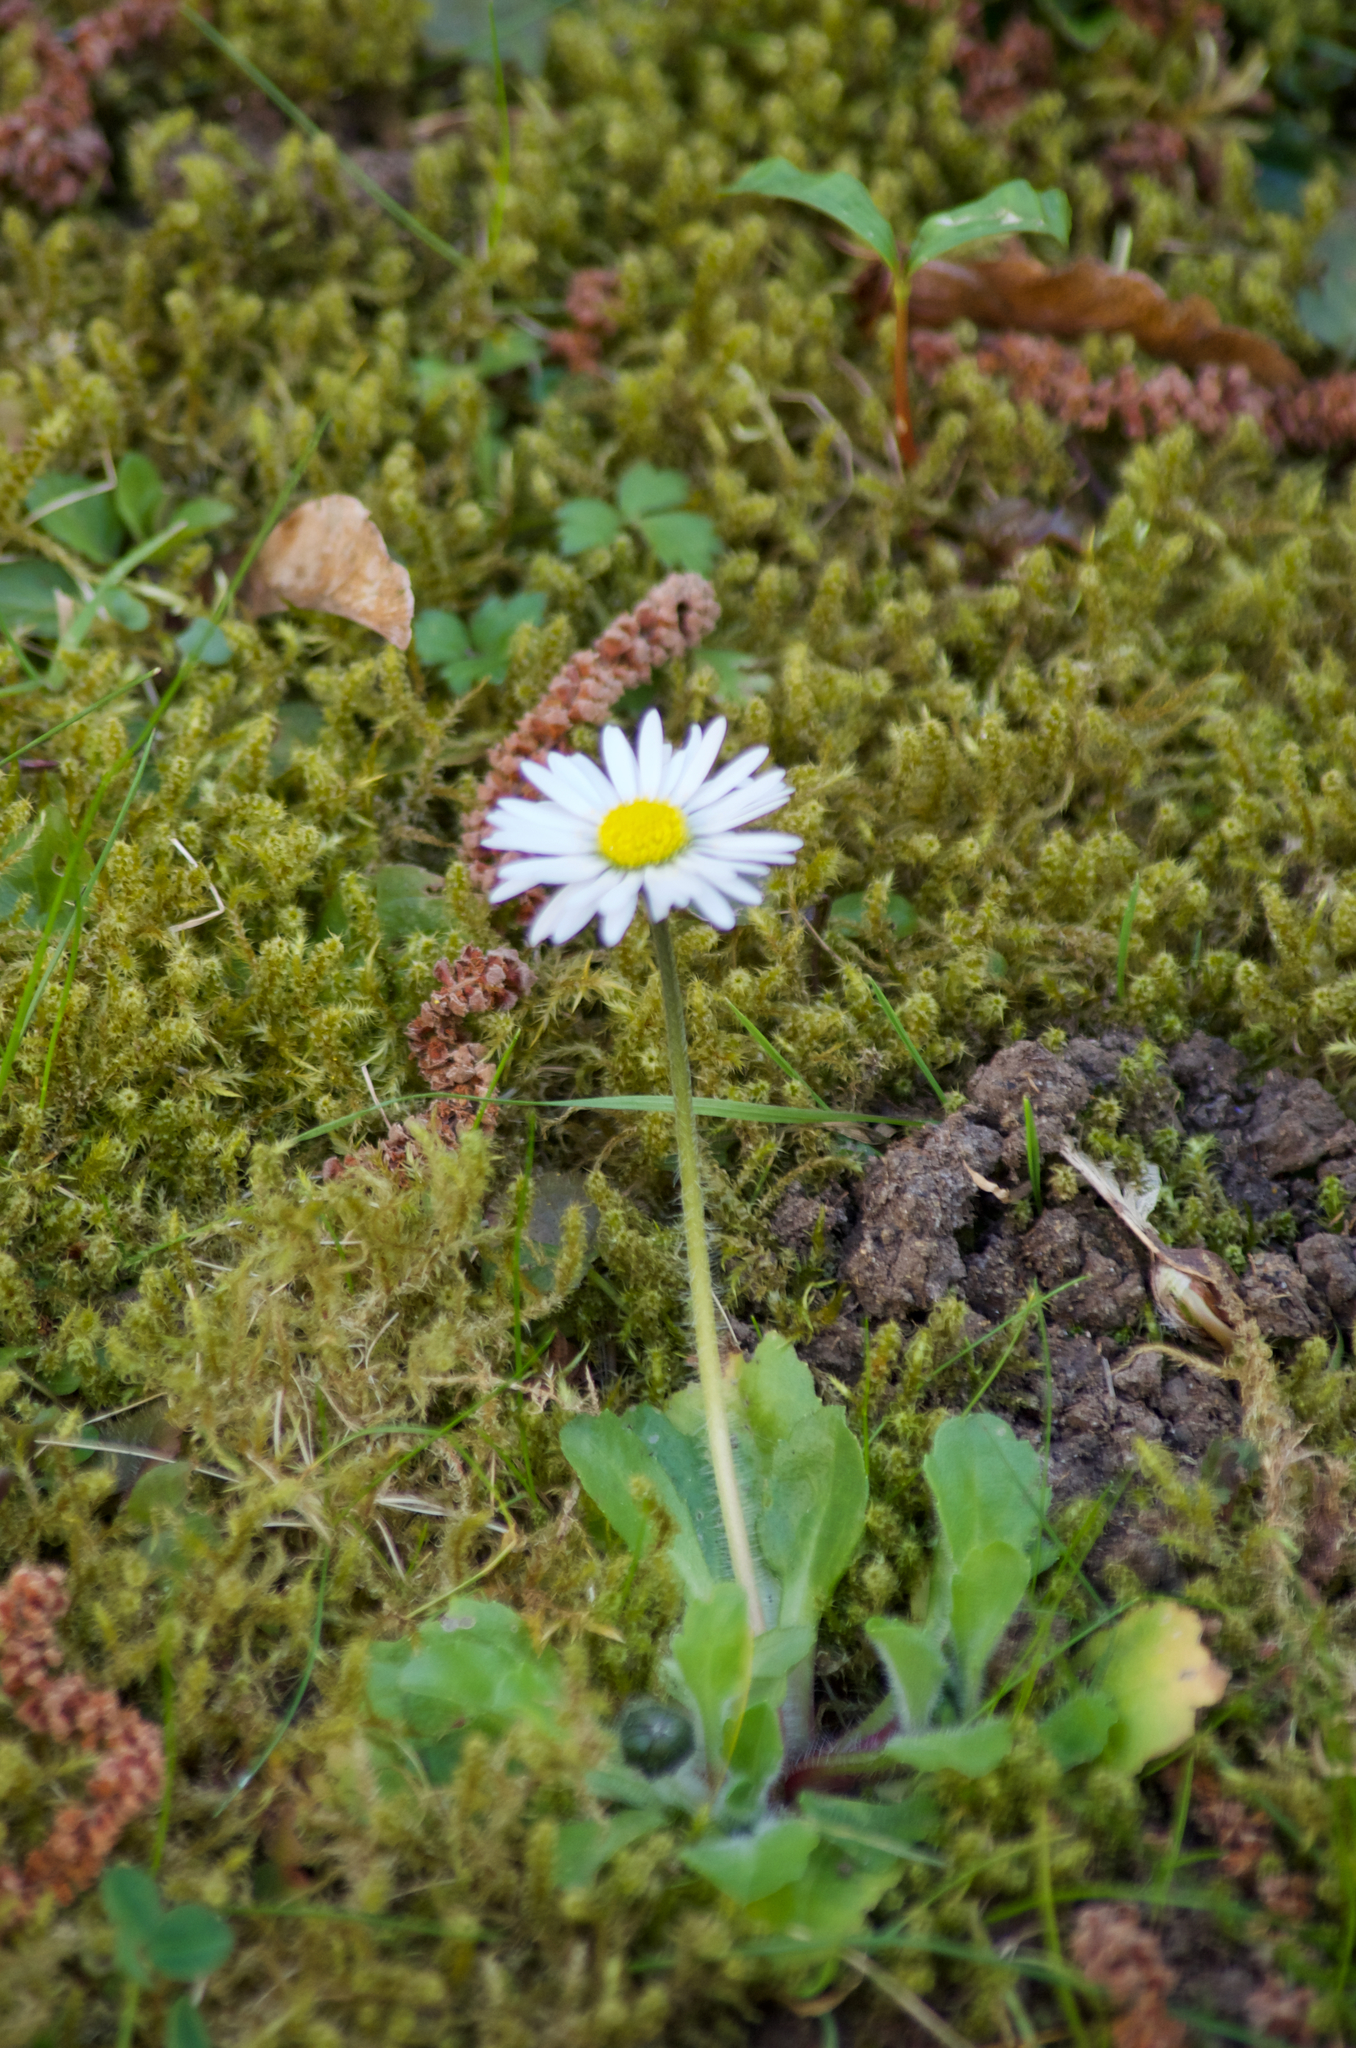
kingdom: Plantae
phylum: Tracheophyta
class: Magnoliopsida
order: Asterales
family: Asteraceae
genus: Bellis
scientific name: Bellis perennis
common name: Lawndaisy
